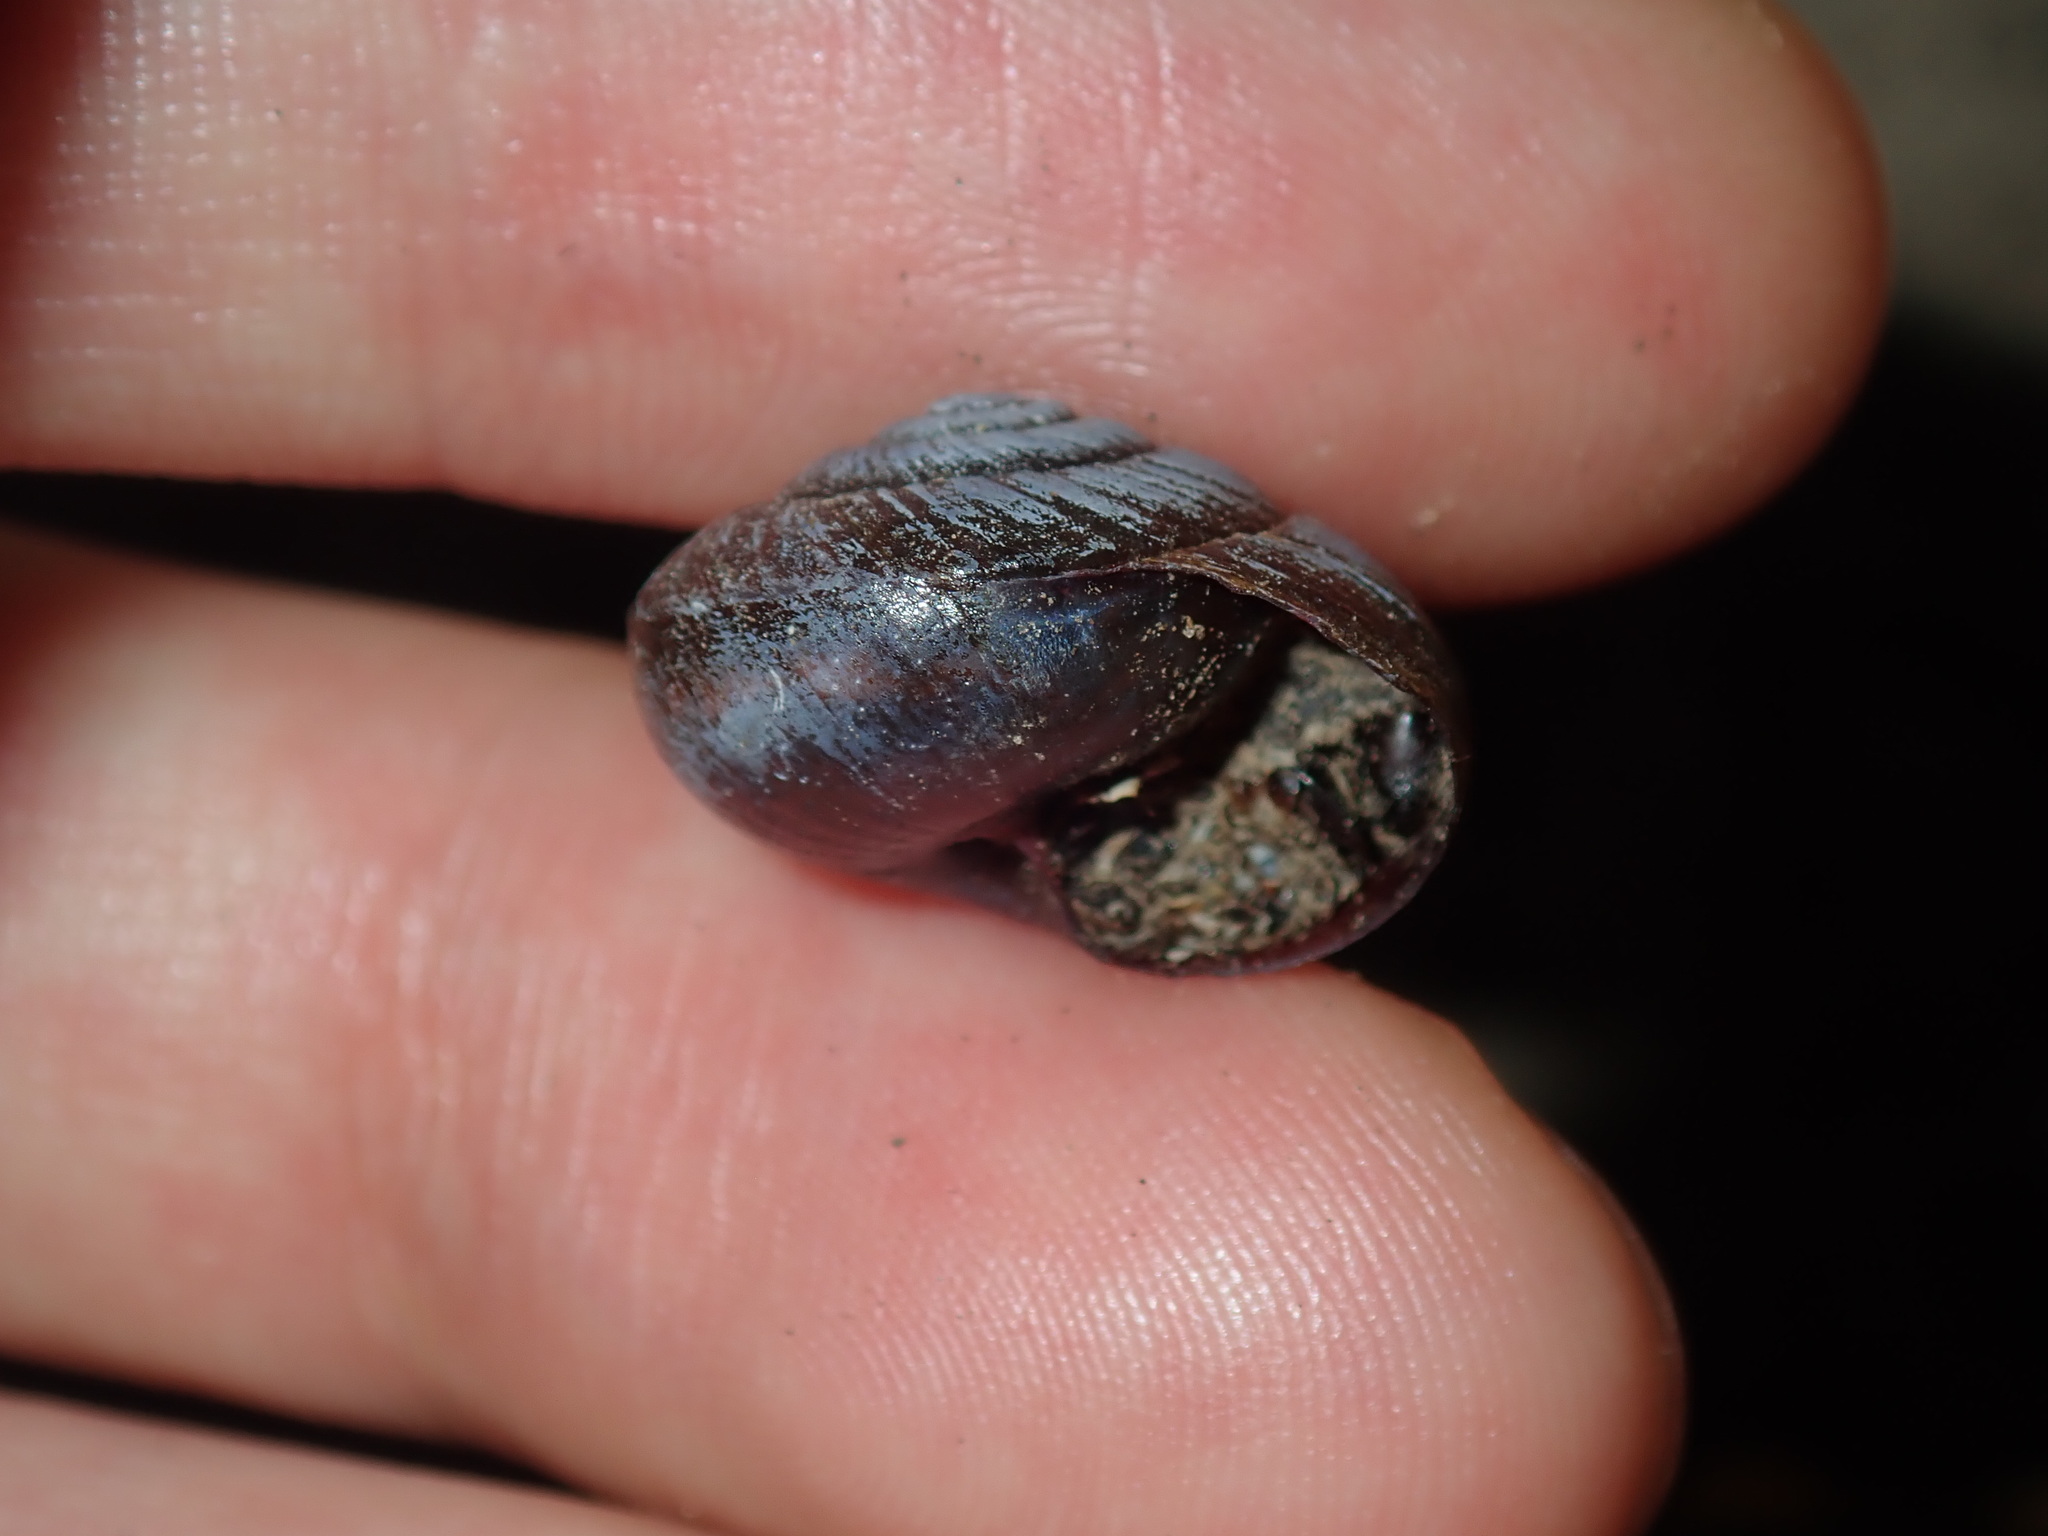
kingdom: Animalia
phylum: Mollusca
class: Gastropoda
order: Stylommatophora
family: Camaenidae
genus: Sauroconcha
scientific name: Sauroconcha sheai
